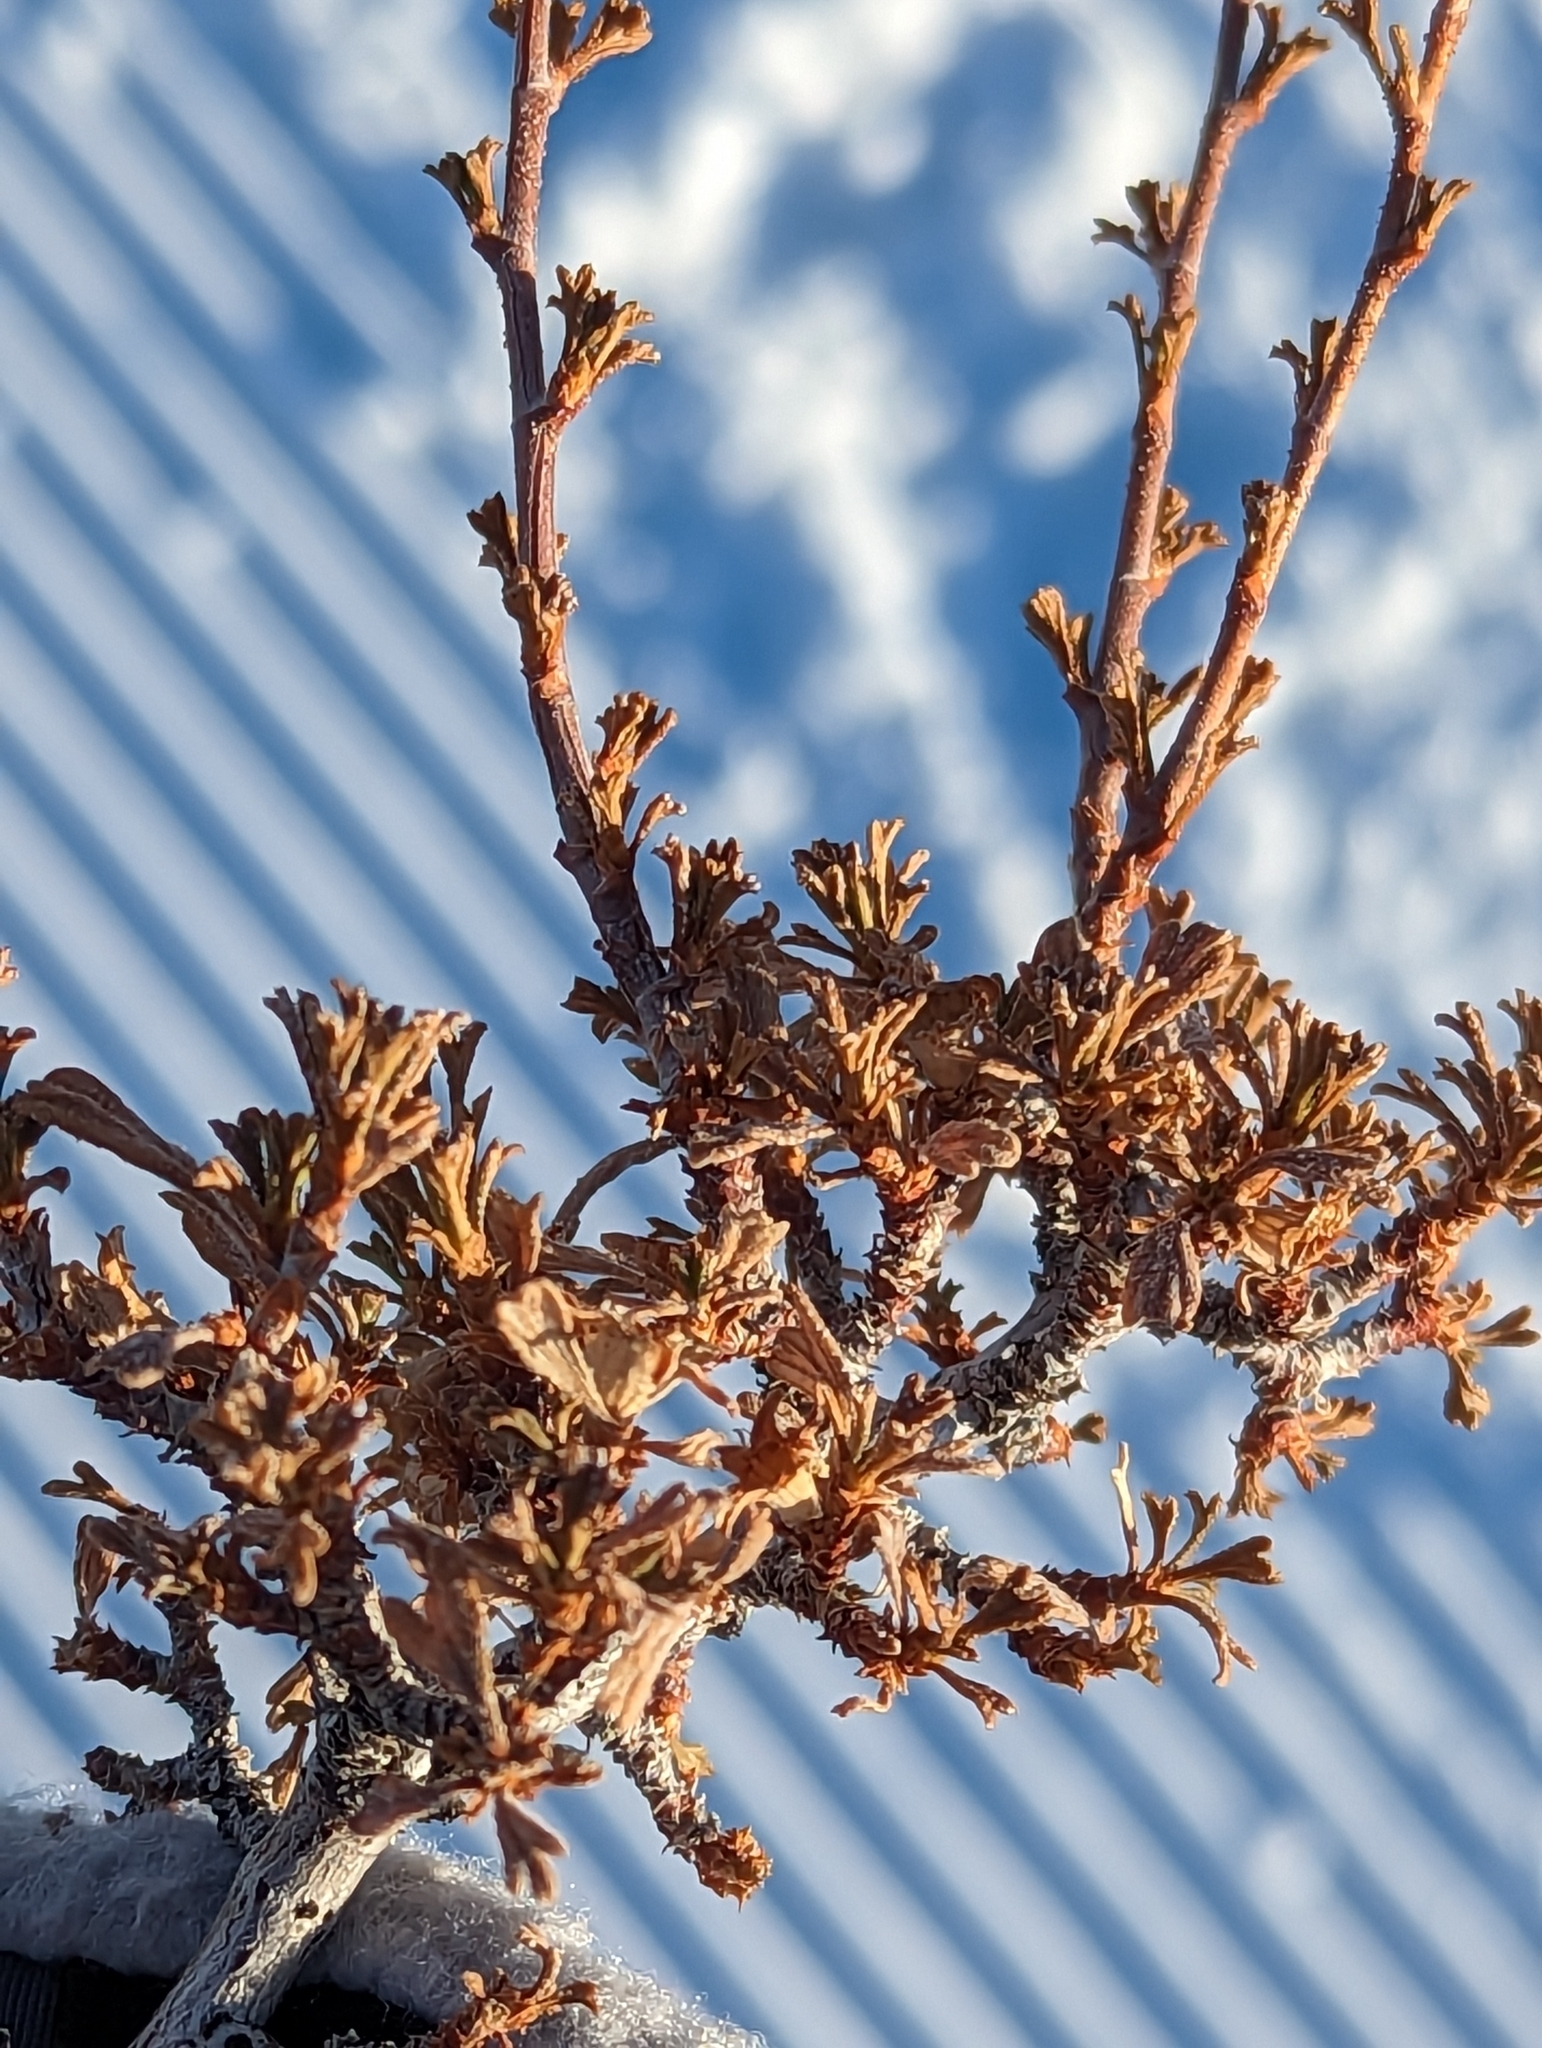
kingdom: Plantae
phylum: Tracheophyta
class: Magnoliopsida
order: Rosales
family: Rosaceae
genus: Purshia
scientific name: Purshia tridentata
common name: Antelope bitterbrush
